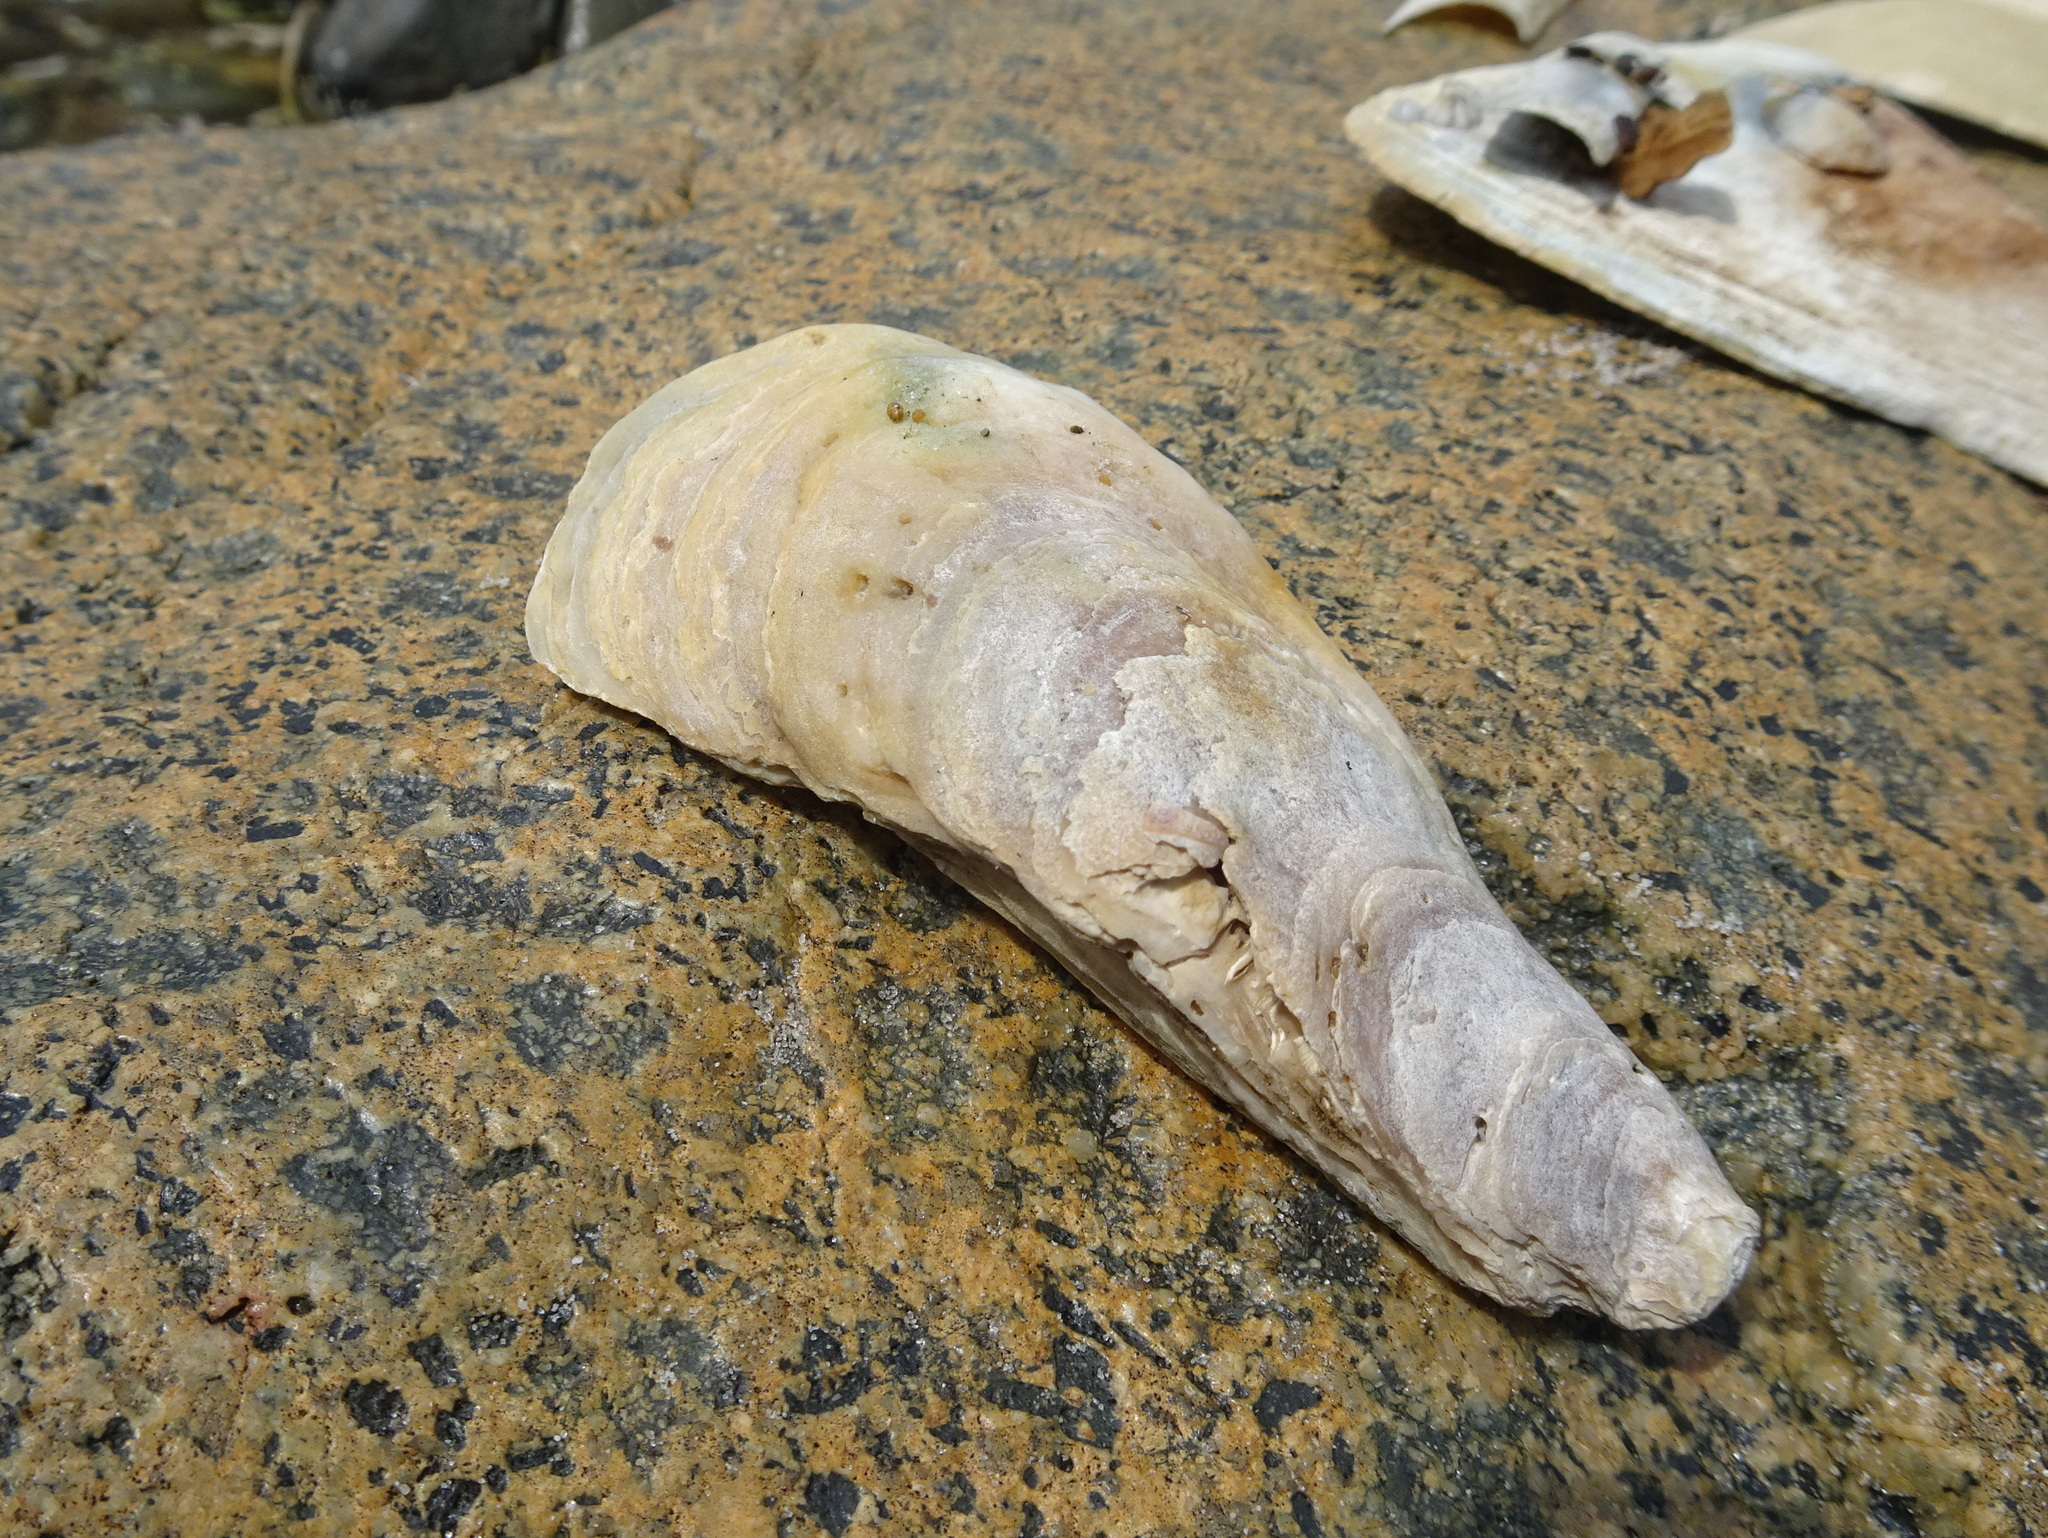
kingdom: Animalia
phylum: Mollusca
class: Bivalvia
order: Ostreida
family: Ostreidae
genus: Crassostrea
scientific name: Crassostrea virginica
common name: American oyster
